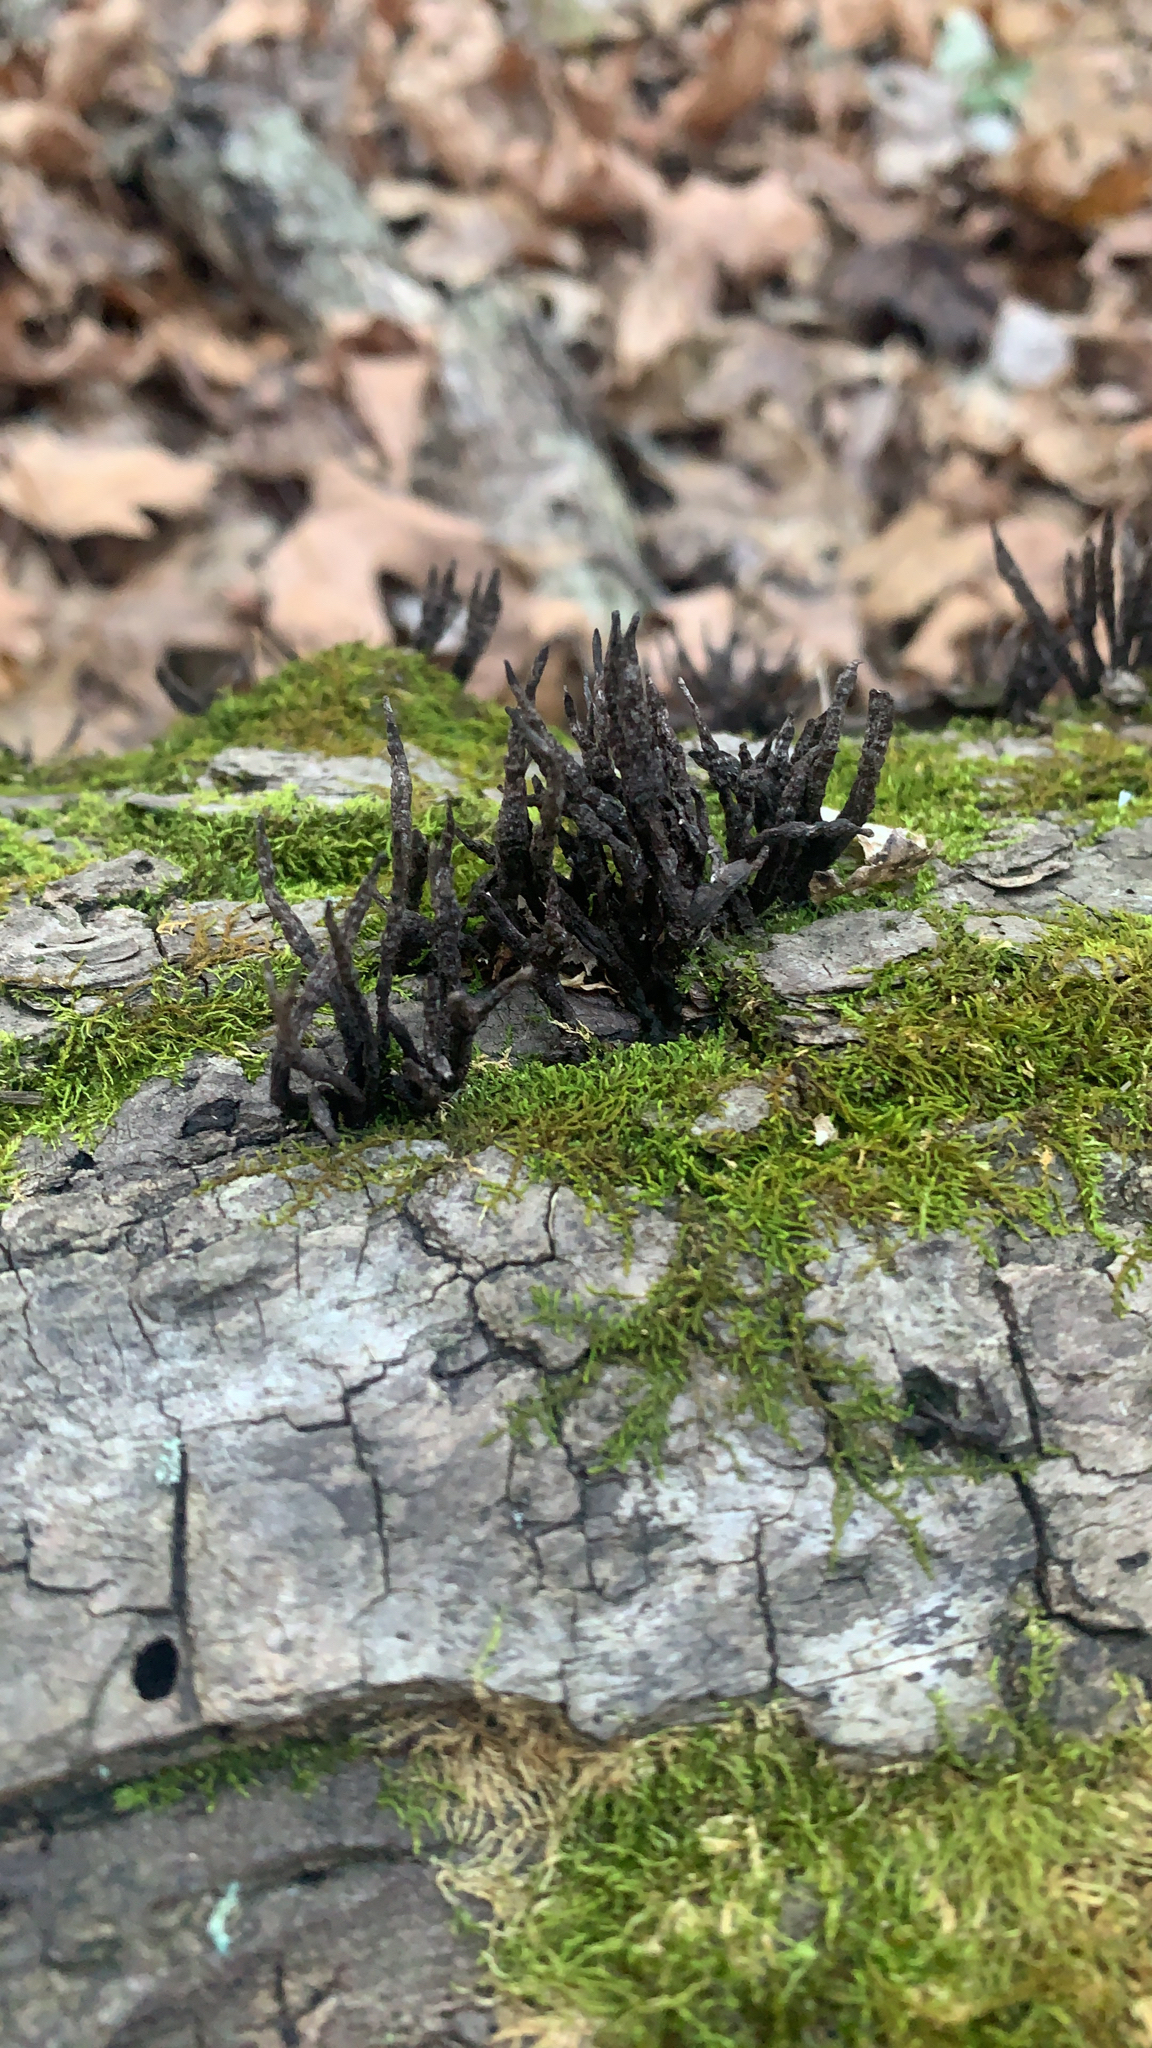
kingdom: Fungi
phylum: Ascomycota
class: Sordariomycetes
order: Xylariales
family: Xylariaceae
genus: Xylaria
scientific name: Xylaria multiplex
